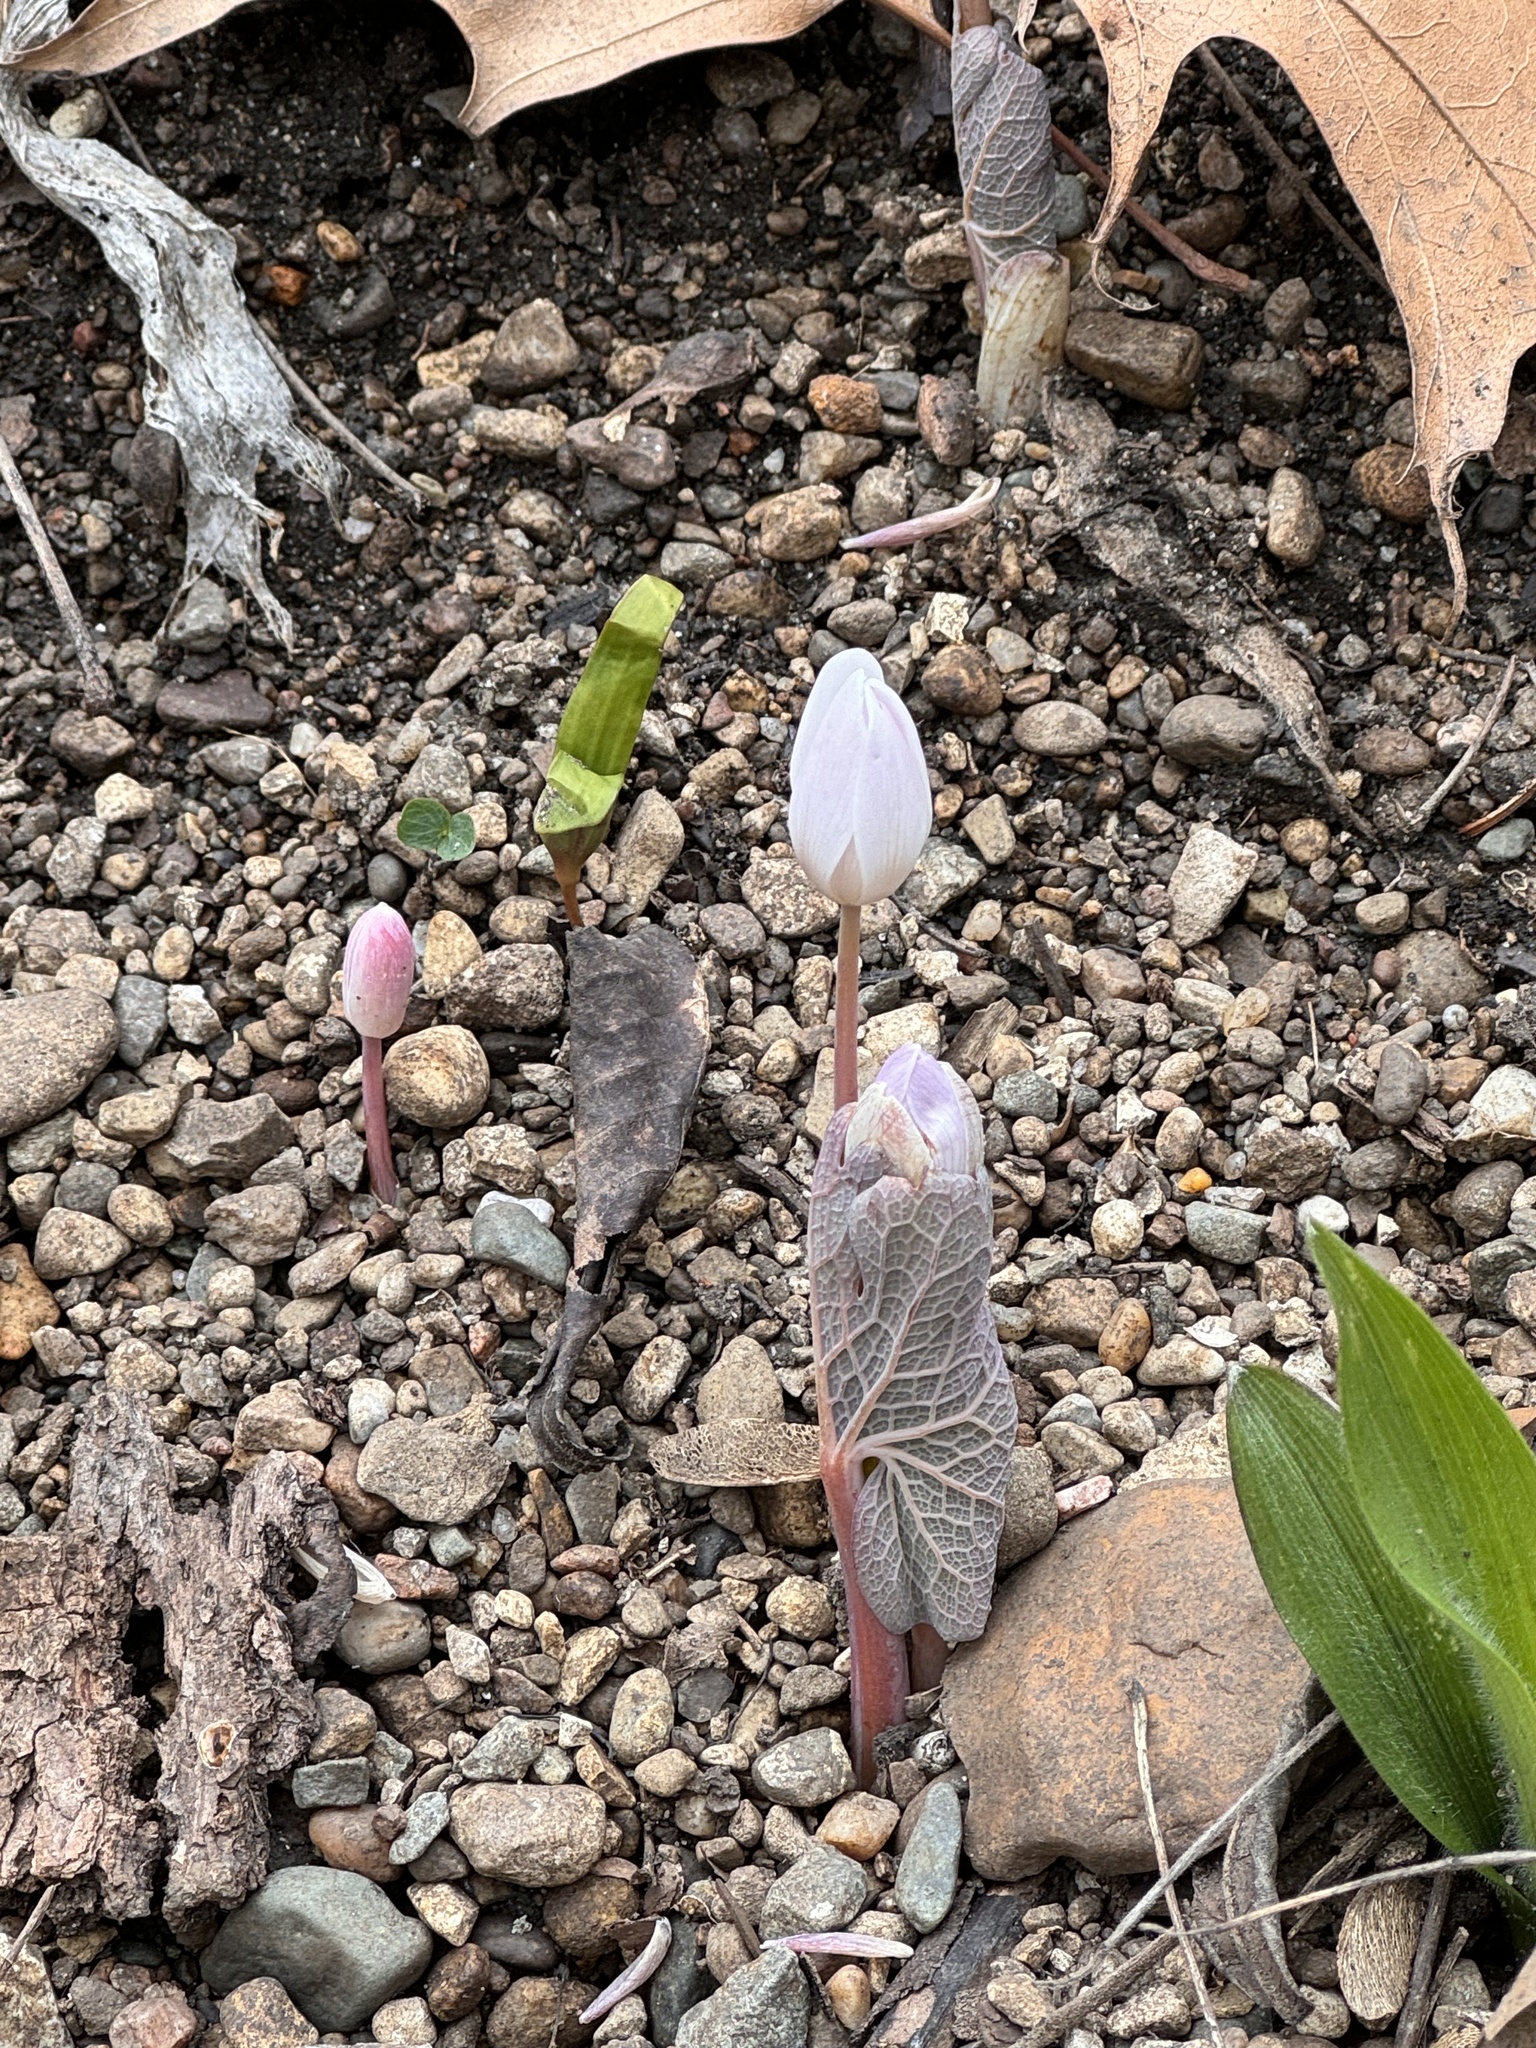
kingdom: Plantae
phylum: Tracheophyta
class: Magnoliopsida
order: Ranunculales
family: Papaveraceae
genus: Sanguinaria
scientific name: Sanguinaria canadensis
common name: Bloodroot
